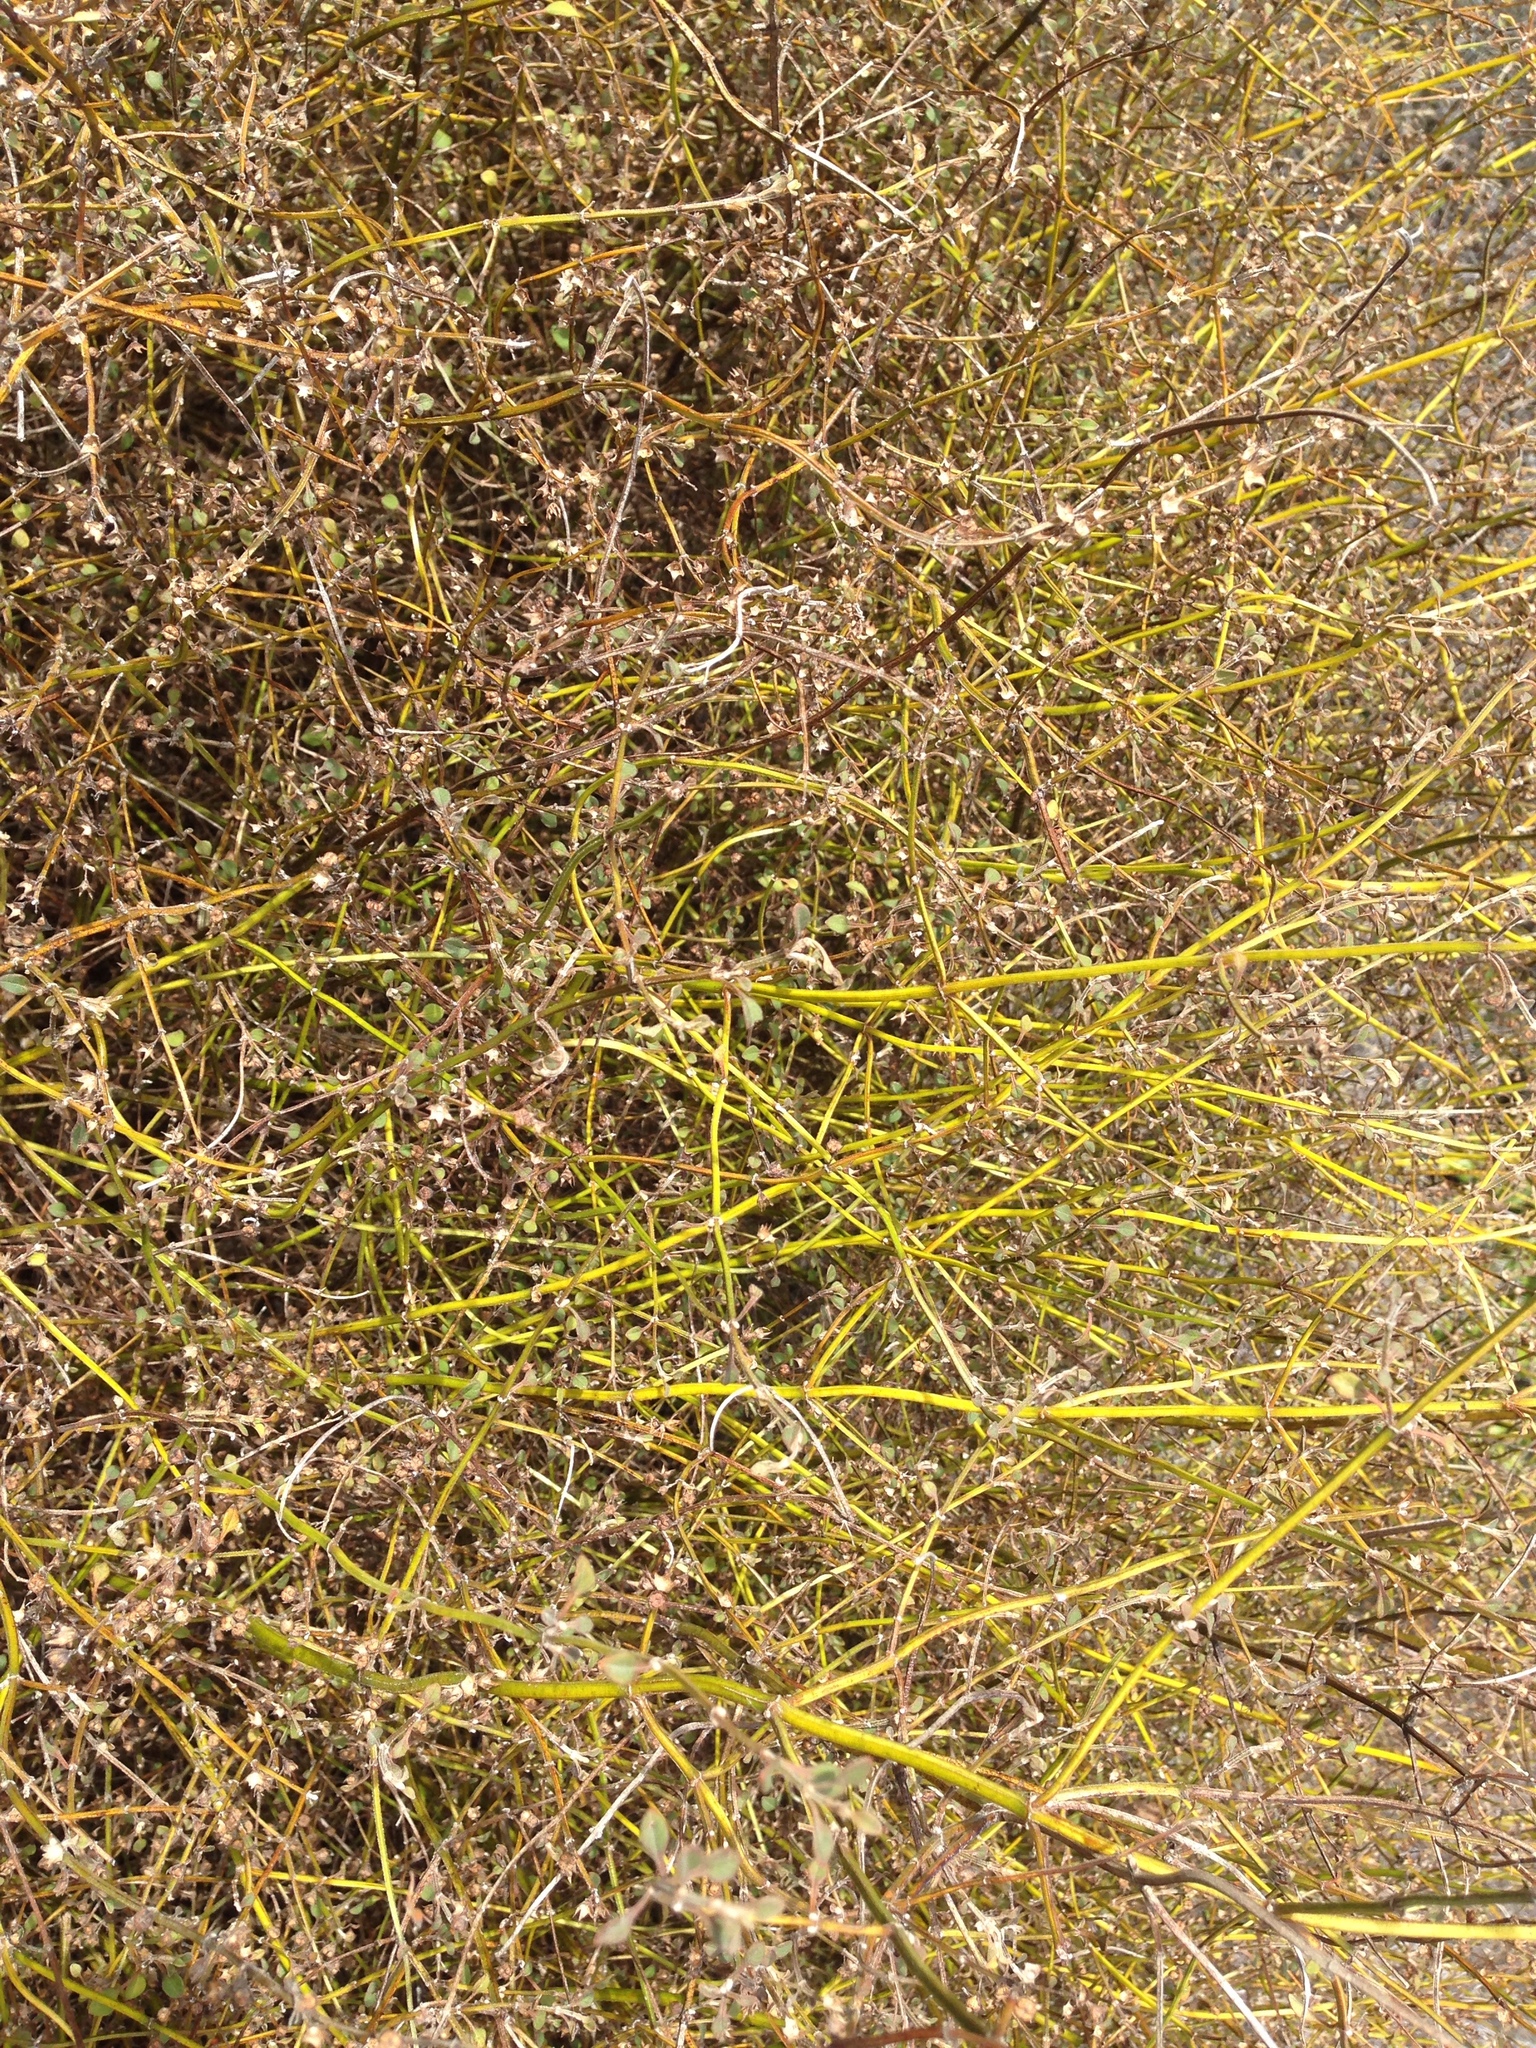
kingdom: Plantae
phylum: Tracheophyta
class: Magnoliopsida
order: Lamiales
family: Lamiaceae
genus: Teucrium
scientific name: Teucrium parvifolium
